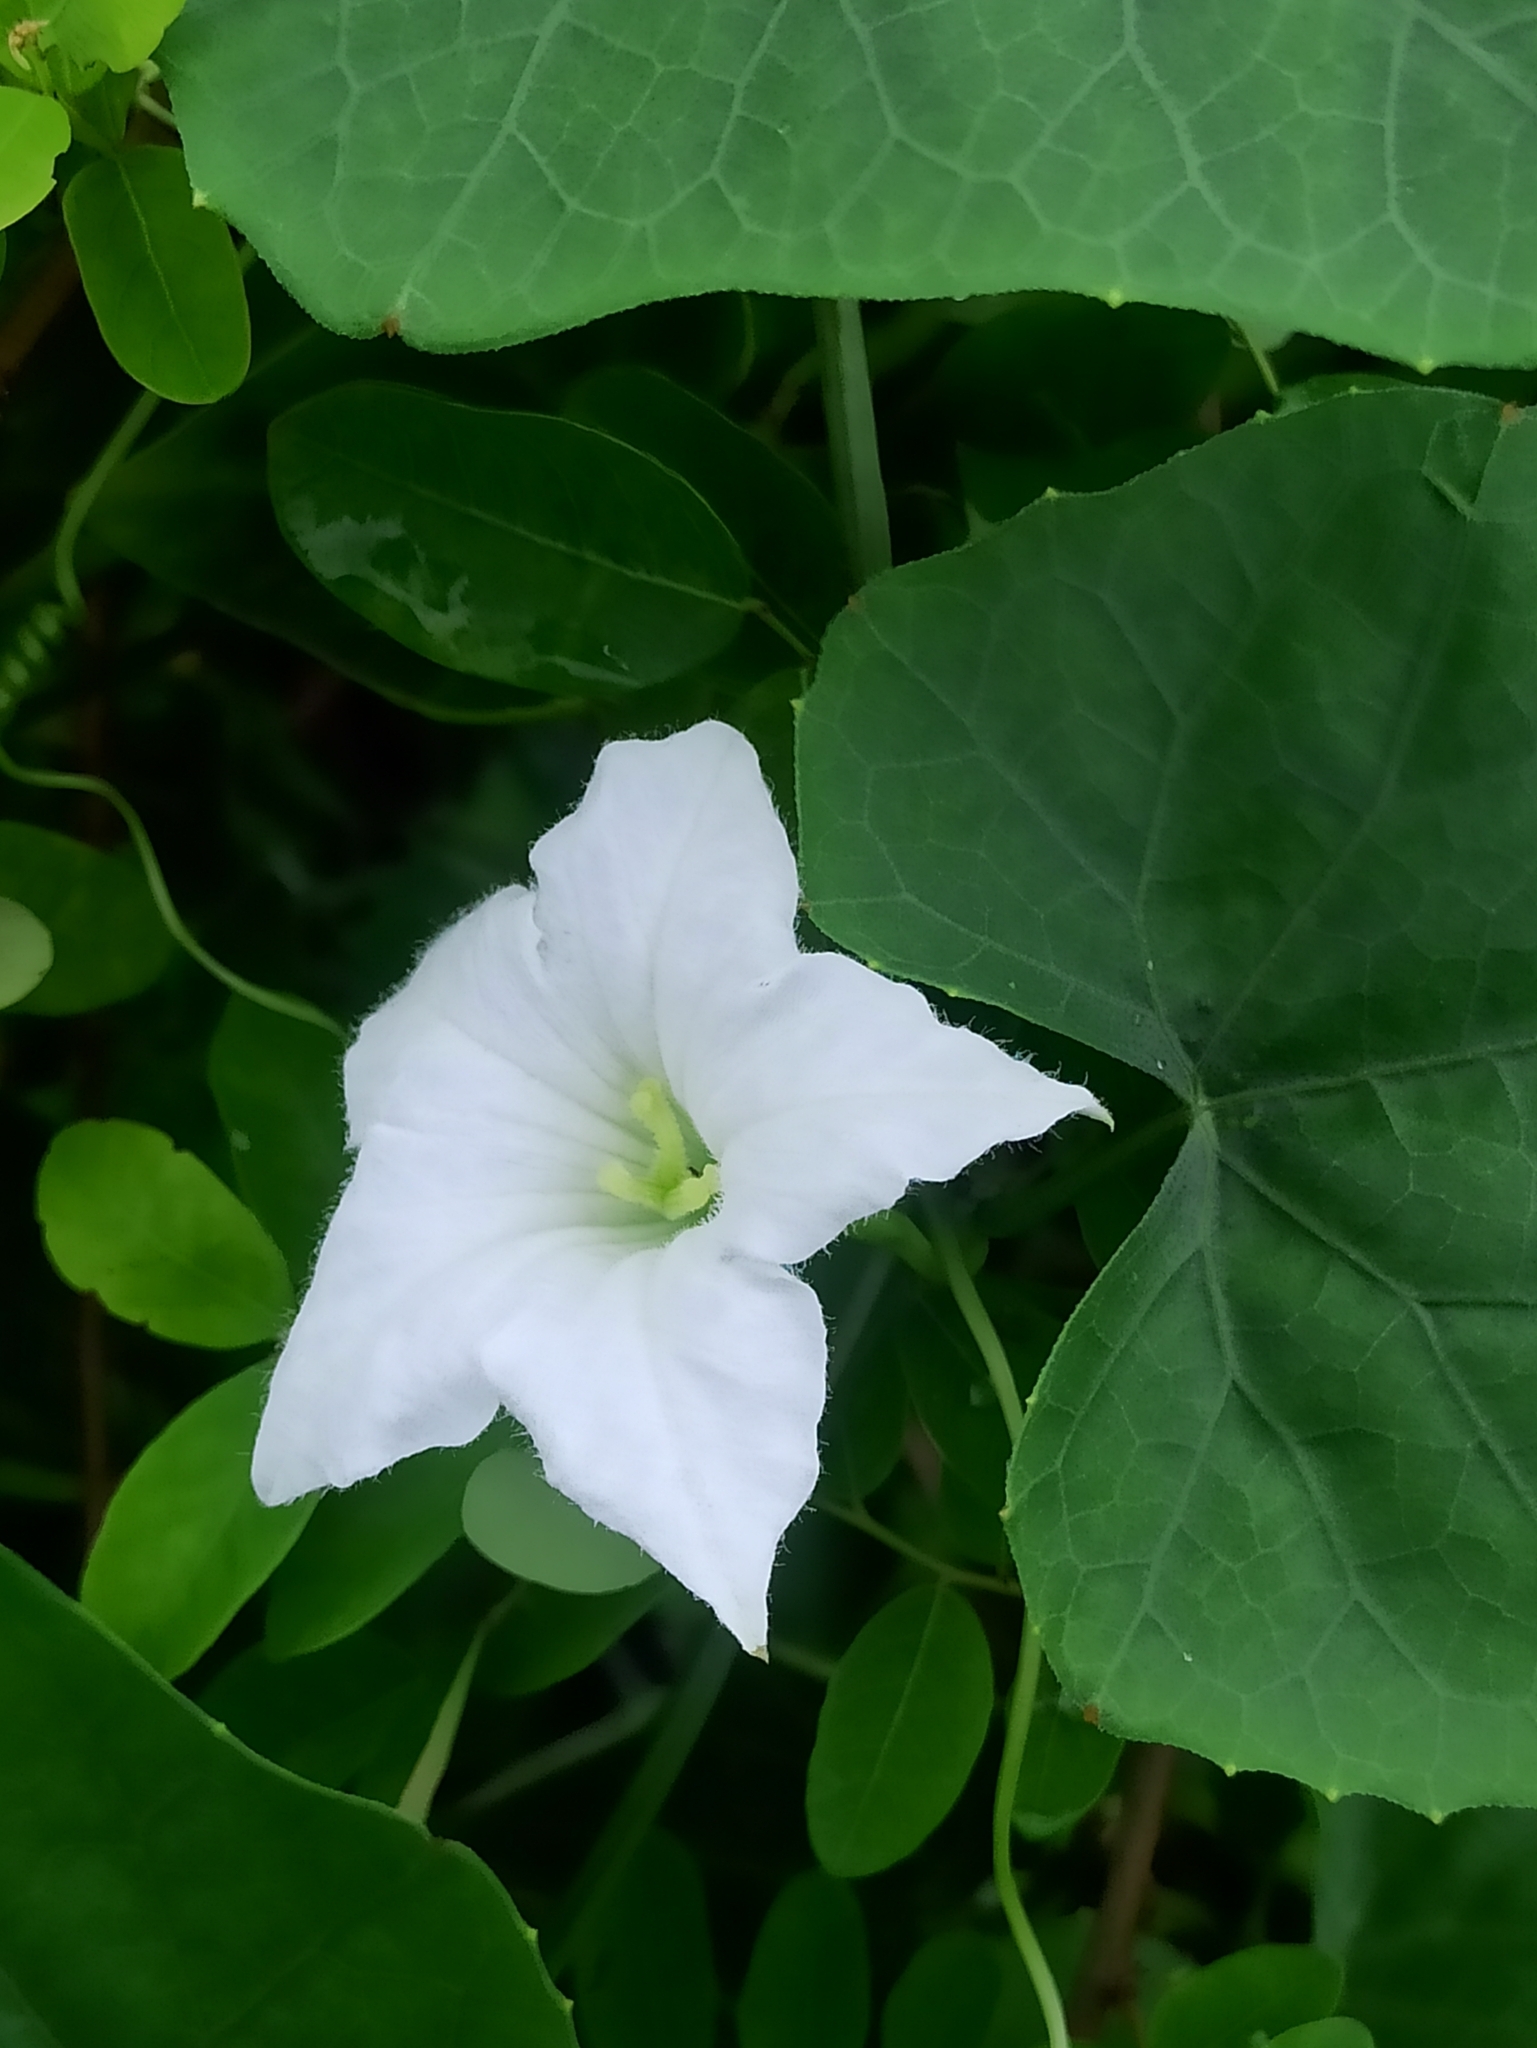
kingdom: Plantae
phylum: Tracheophyta
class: Magnoliopsida
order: Cucurbitales
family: Cucurbitaceae
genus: Coccinia
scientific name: Coccinia grandis
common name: Ivy gourd
